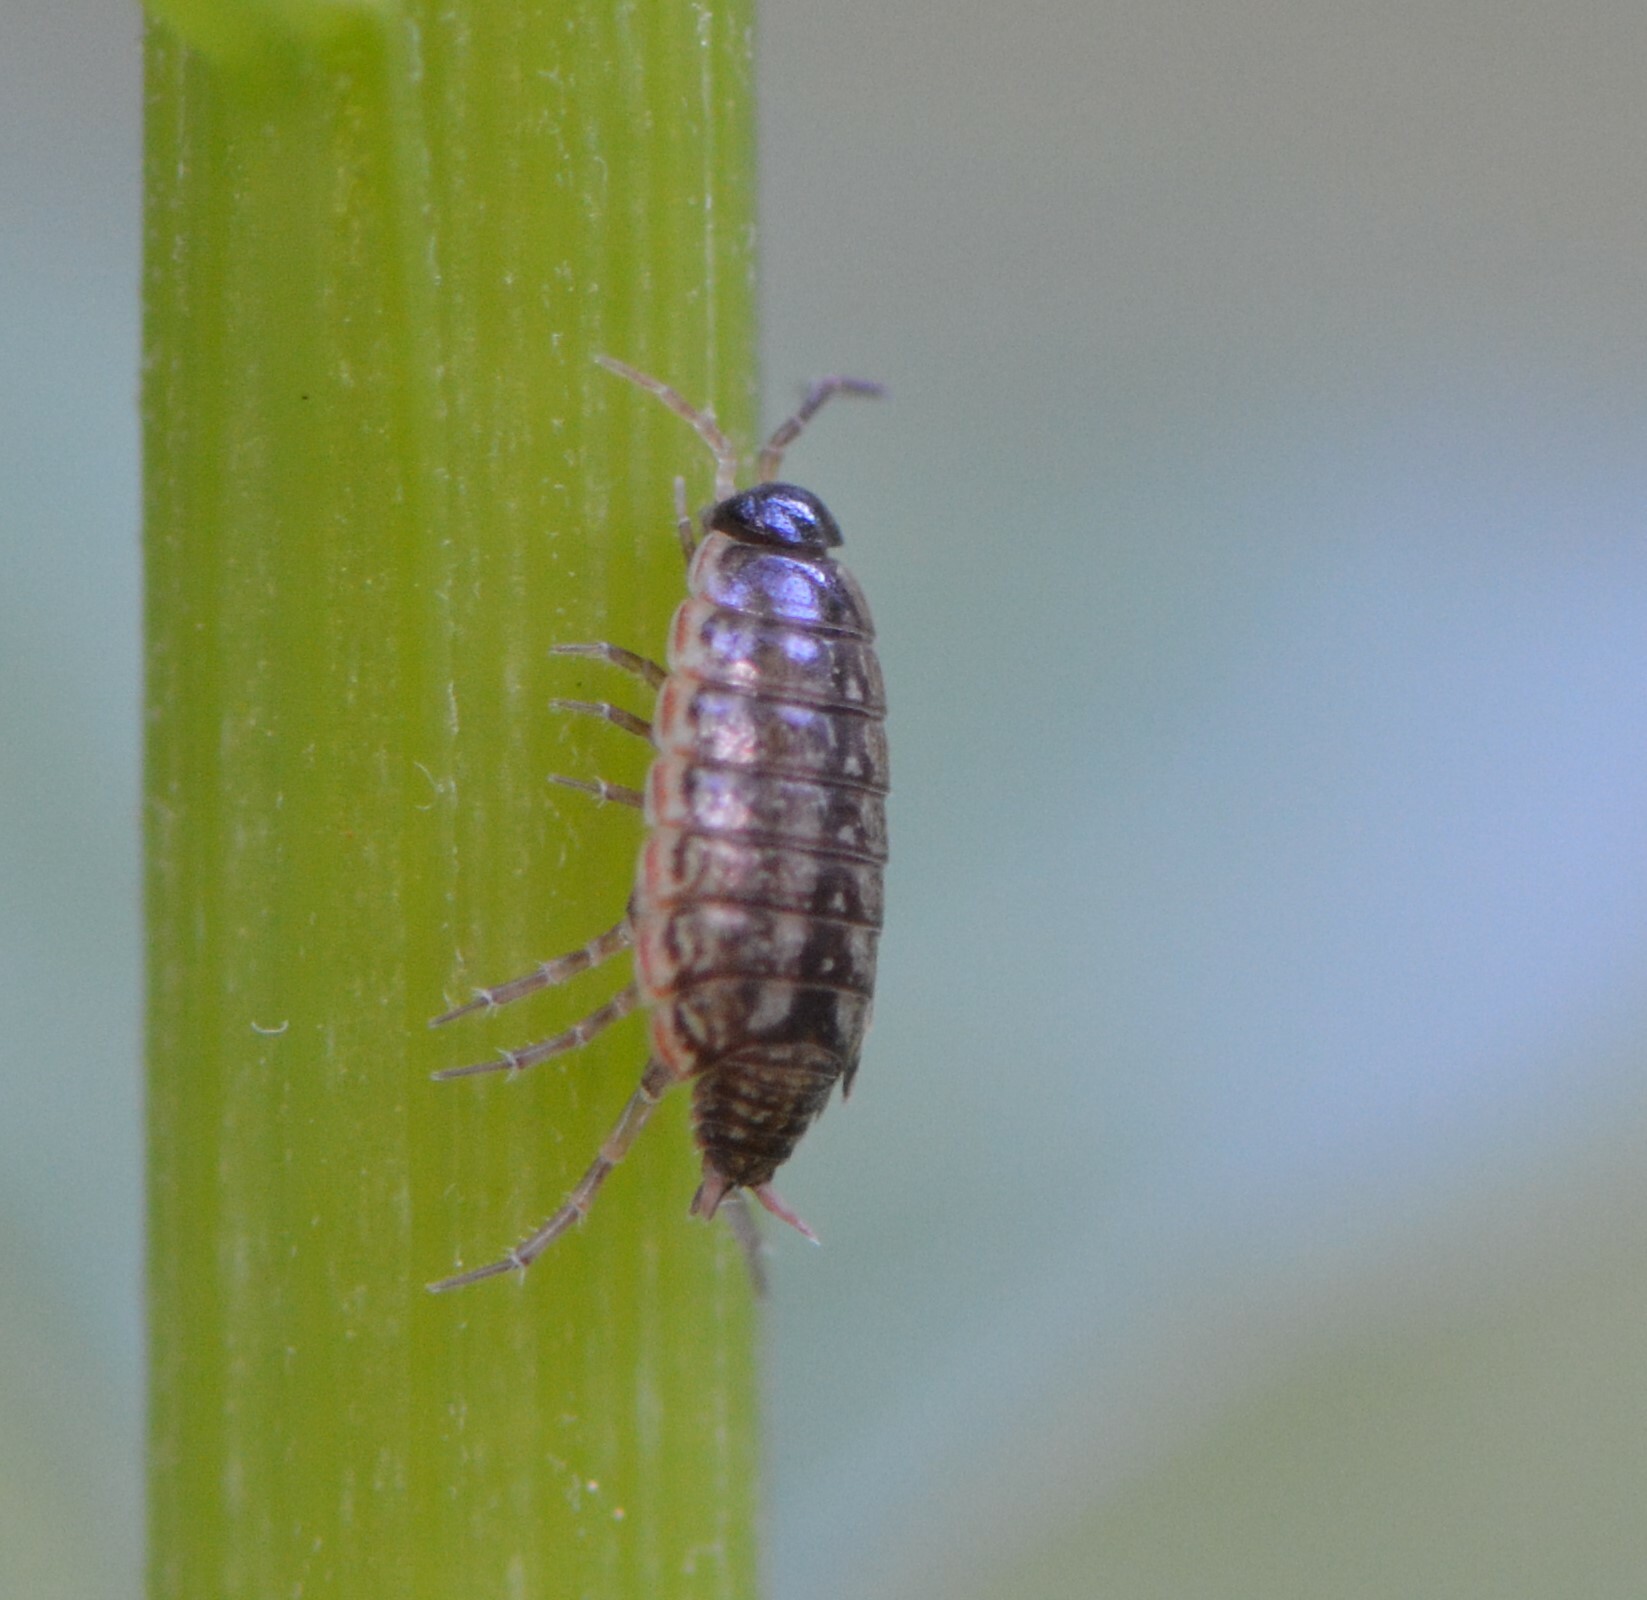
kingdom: Animalia
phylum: Arthropoda
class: Malacostraca
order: Isopoda
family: Philosciidae
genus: Philoscia
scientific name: Philoscia muscorum
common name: Common striped woodlouse
